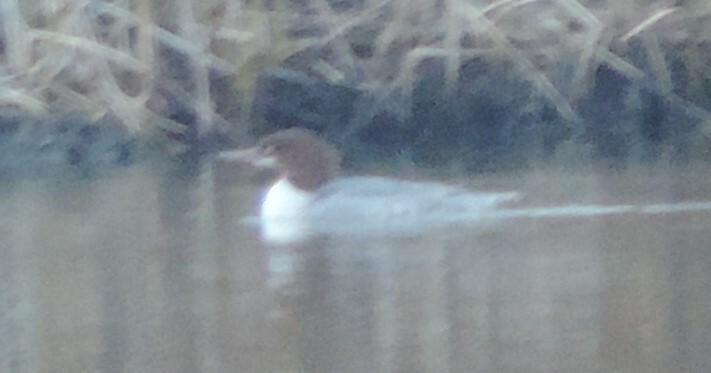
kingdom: Animalia
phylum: Chordata
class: Aves
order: Anseriformes
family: Anatidae
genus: Mergus
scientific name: Mergus merganser
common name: Common merganser
